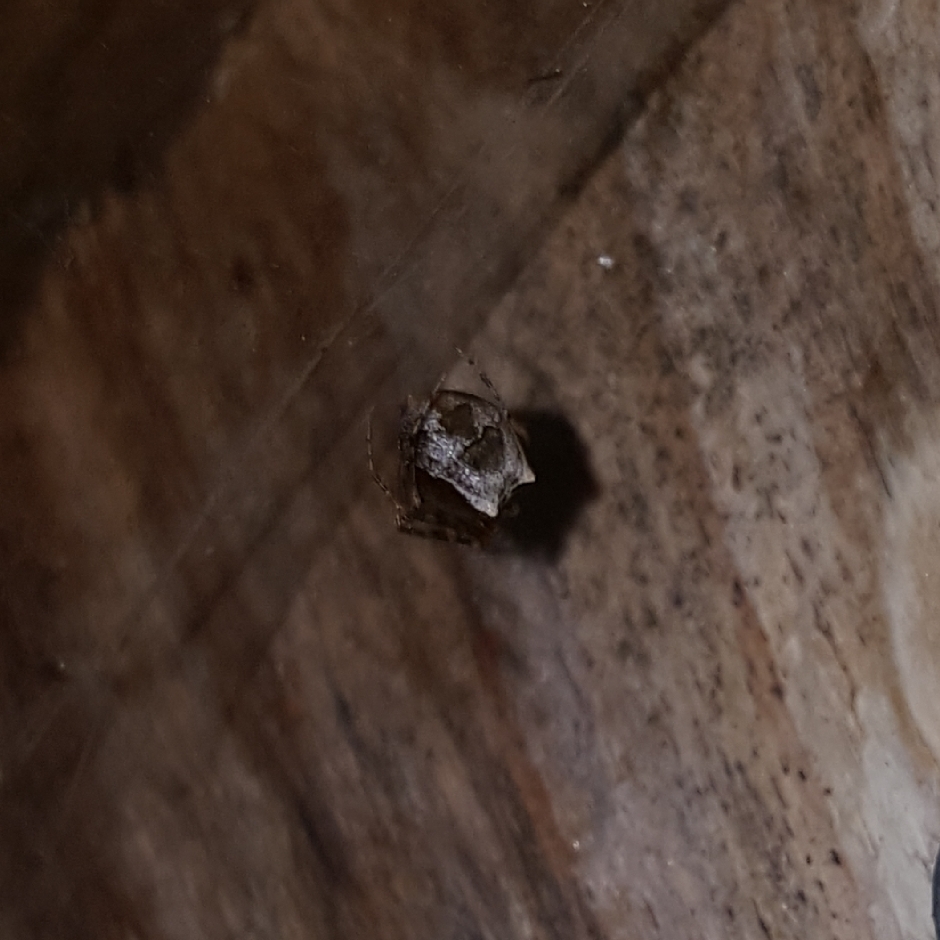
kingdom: Animalia
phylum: Arthropoda
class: Arachnida
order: Araneae
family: Mimetidae
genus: Ero
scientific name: Ero canionis
